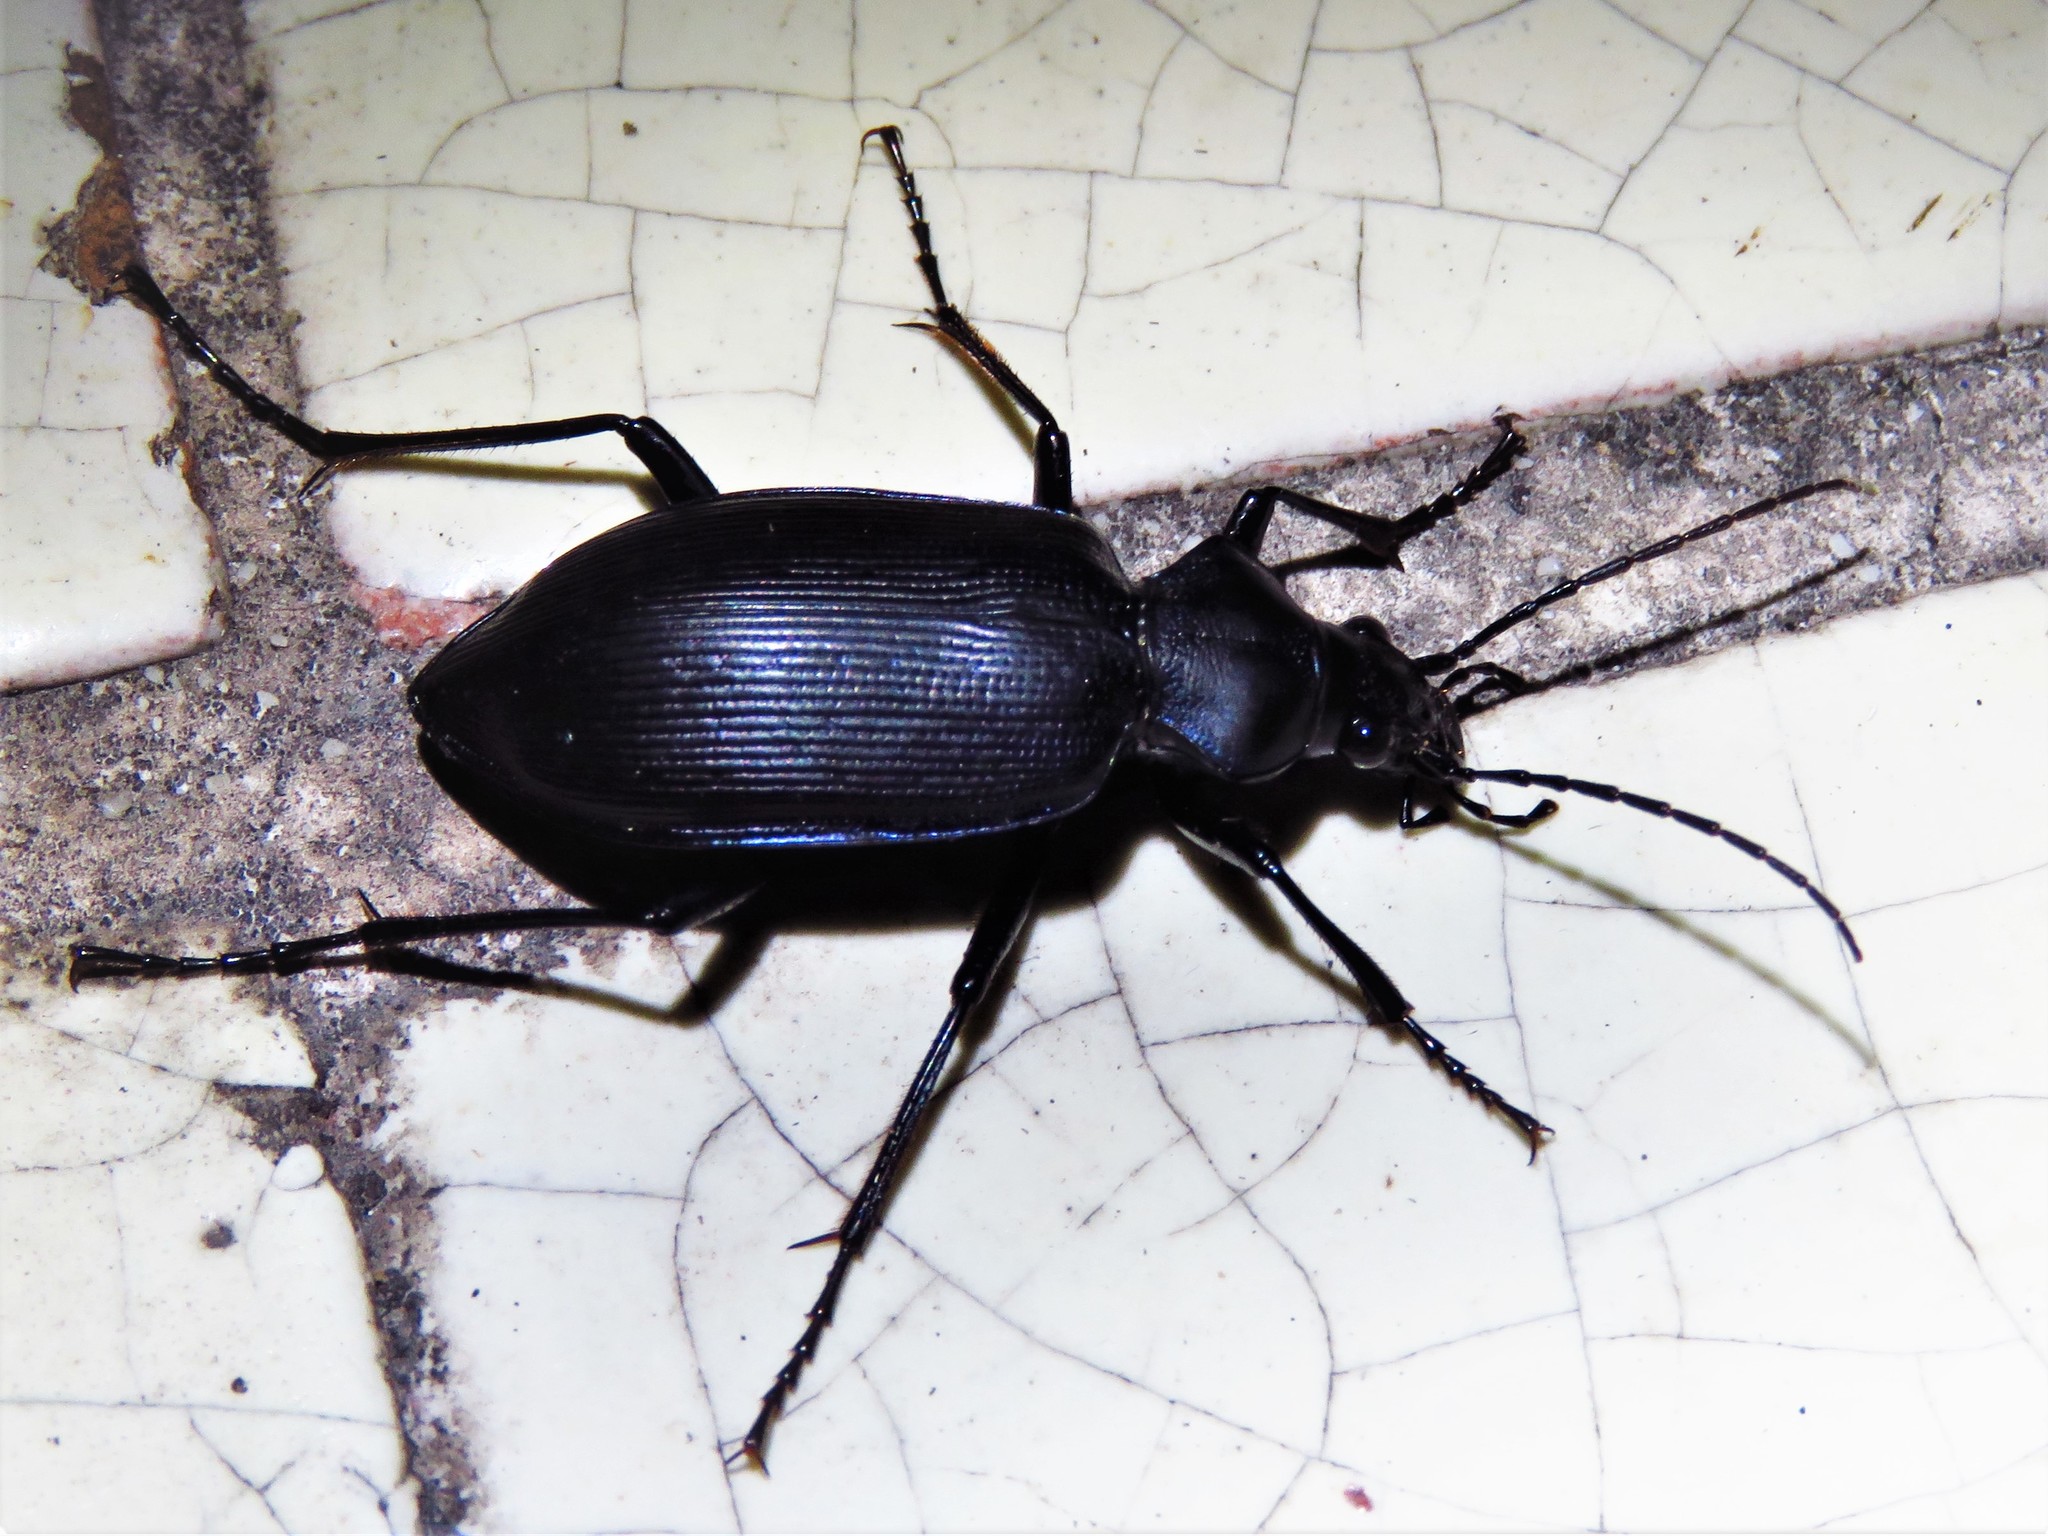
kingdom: Animalia
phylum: Arthropoda
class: Insecta
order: Coleoptera
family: Carabidae
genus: Calosoma
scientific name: Calosoma angulatum
